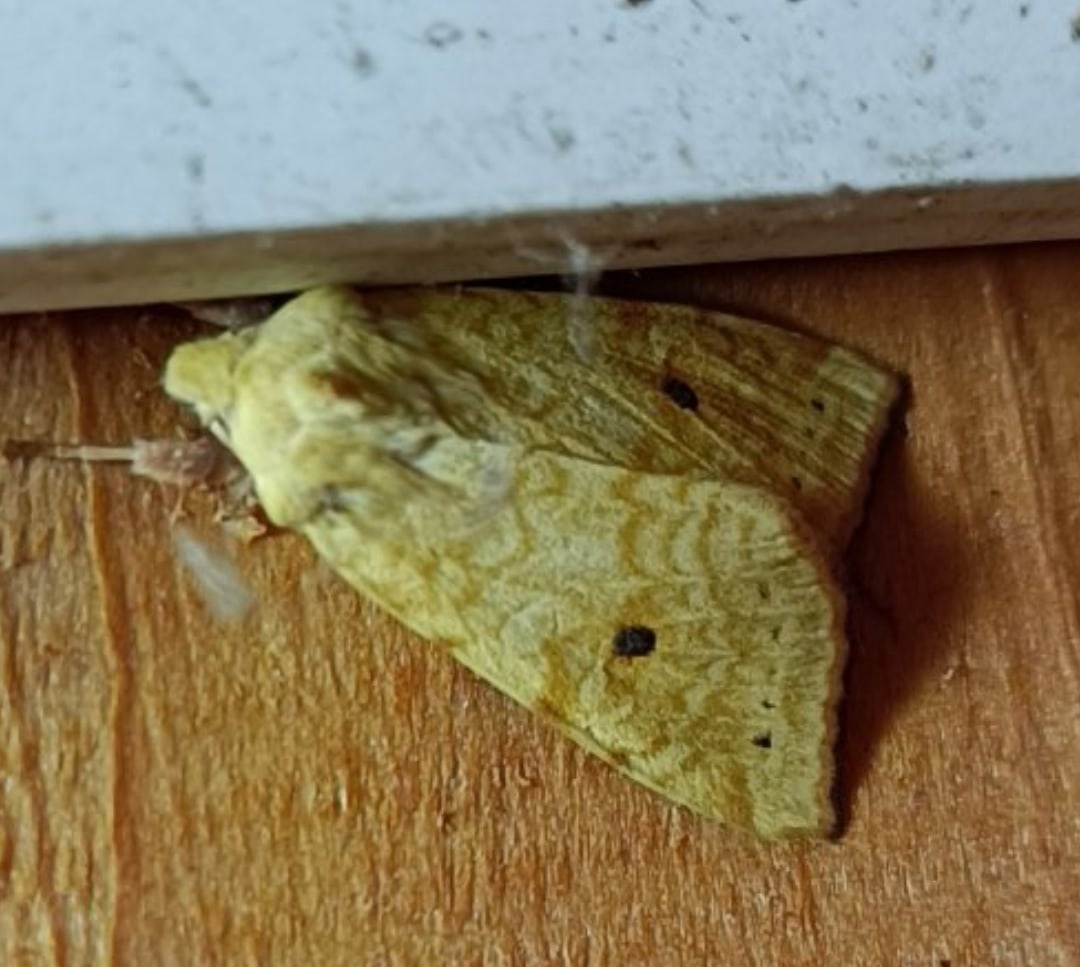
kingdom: Animalia
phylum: Arthropoda
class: Insecta
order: Lepidoptera
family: Noctuidae
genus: Xanthia
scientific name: Xanthia icteritia
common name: The sallow
